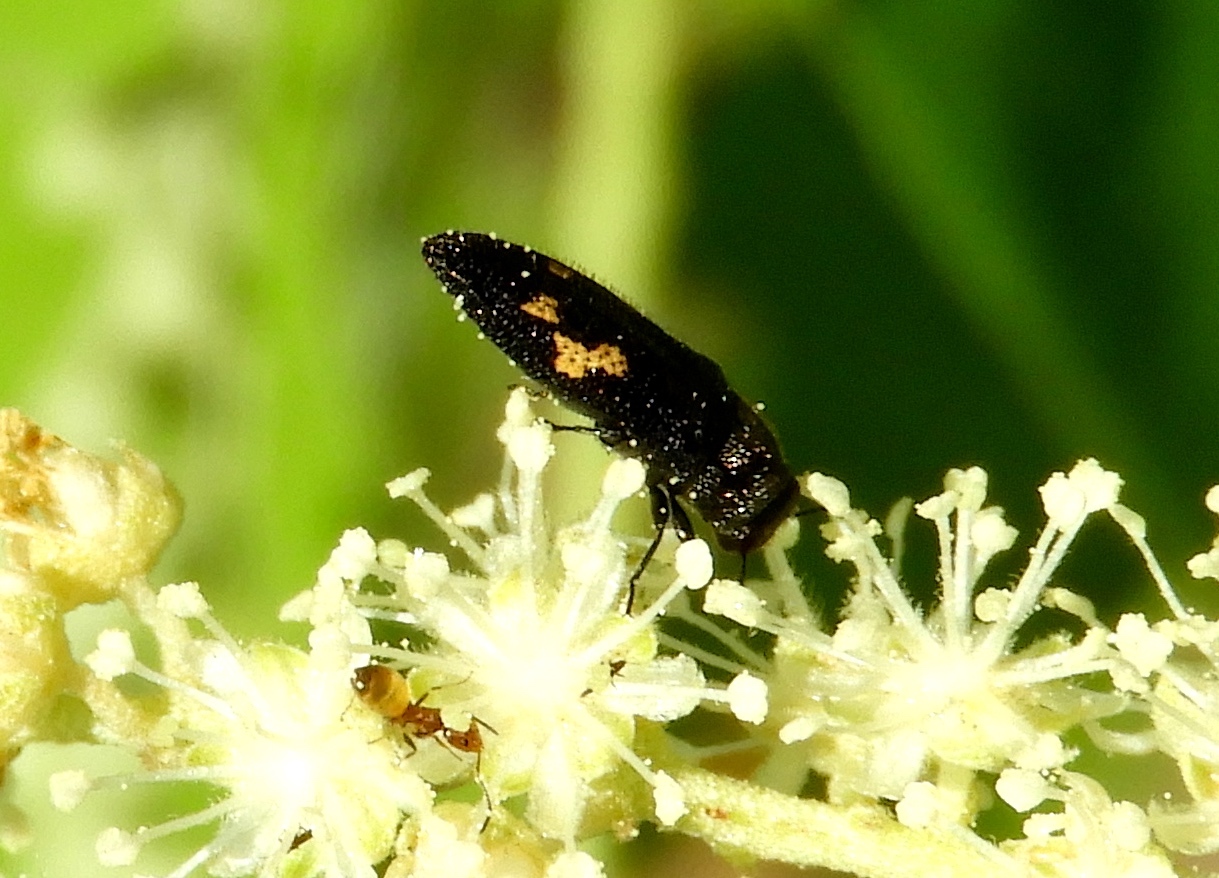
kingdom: Animalia
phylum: Arthropoda
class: Insecta
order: Coleoptera
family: Buprestidae
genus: Acmaeodera
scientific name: Acmaeodera
